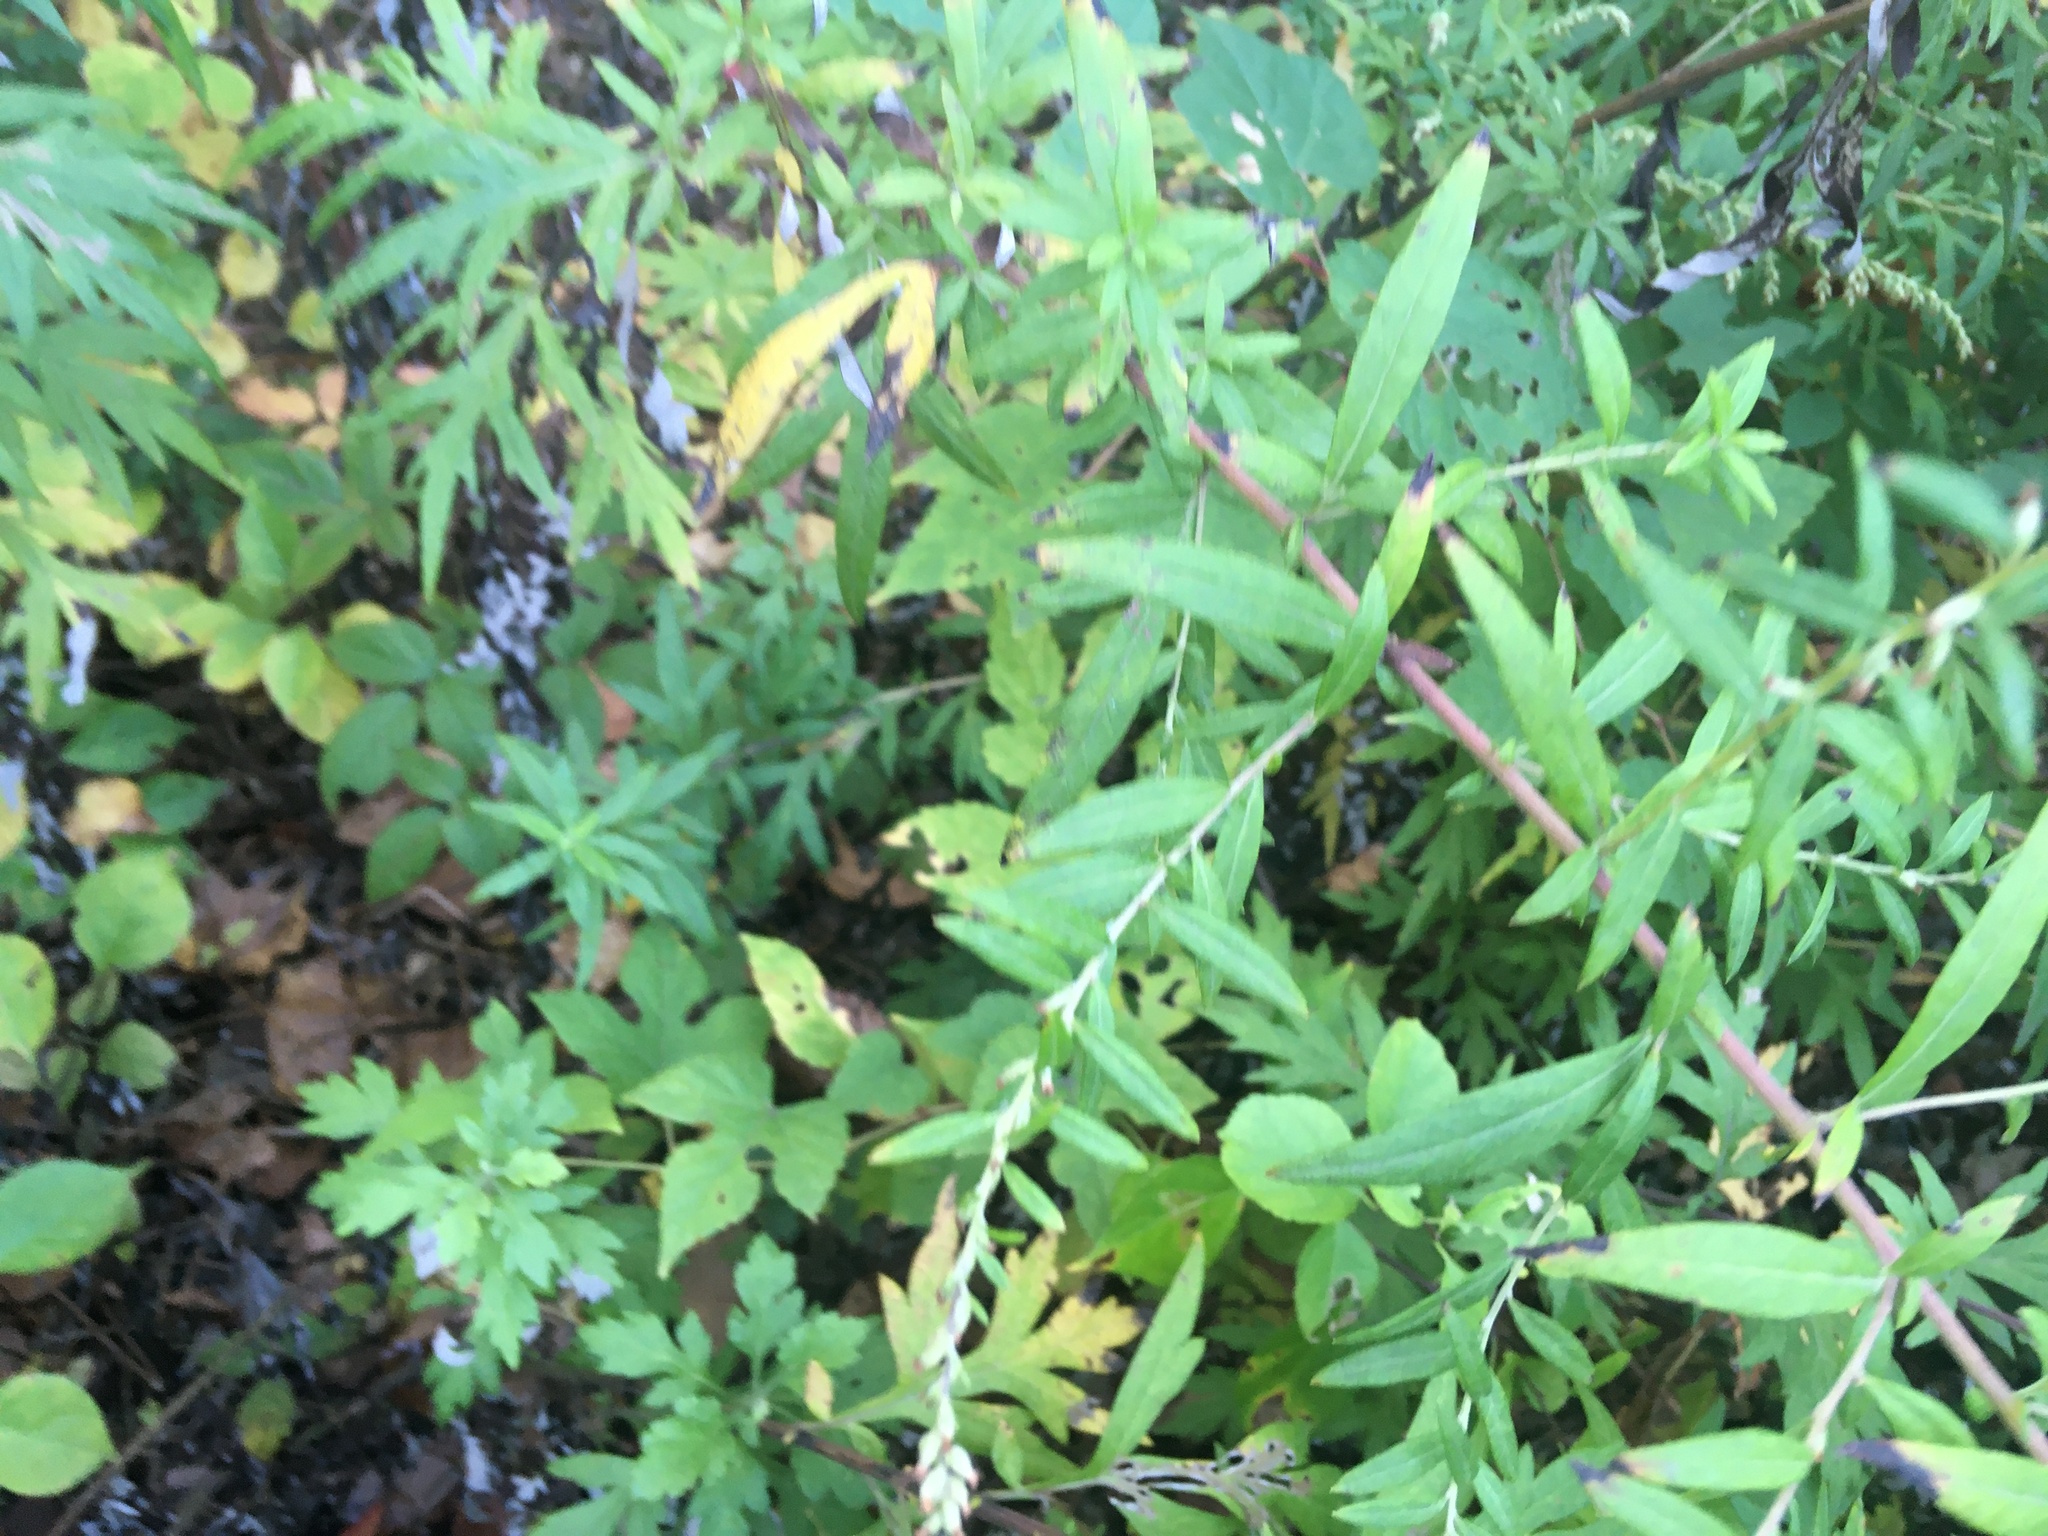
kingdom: Plantae
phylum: Tracheophyta
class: Magnoliopsida
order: Asterales
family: Asteraceae
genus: Artemisia
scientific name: Artemisia vulgaris
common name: Mugwort
